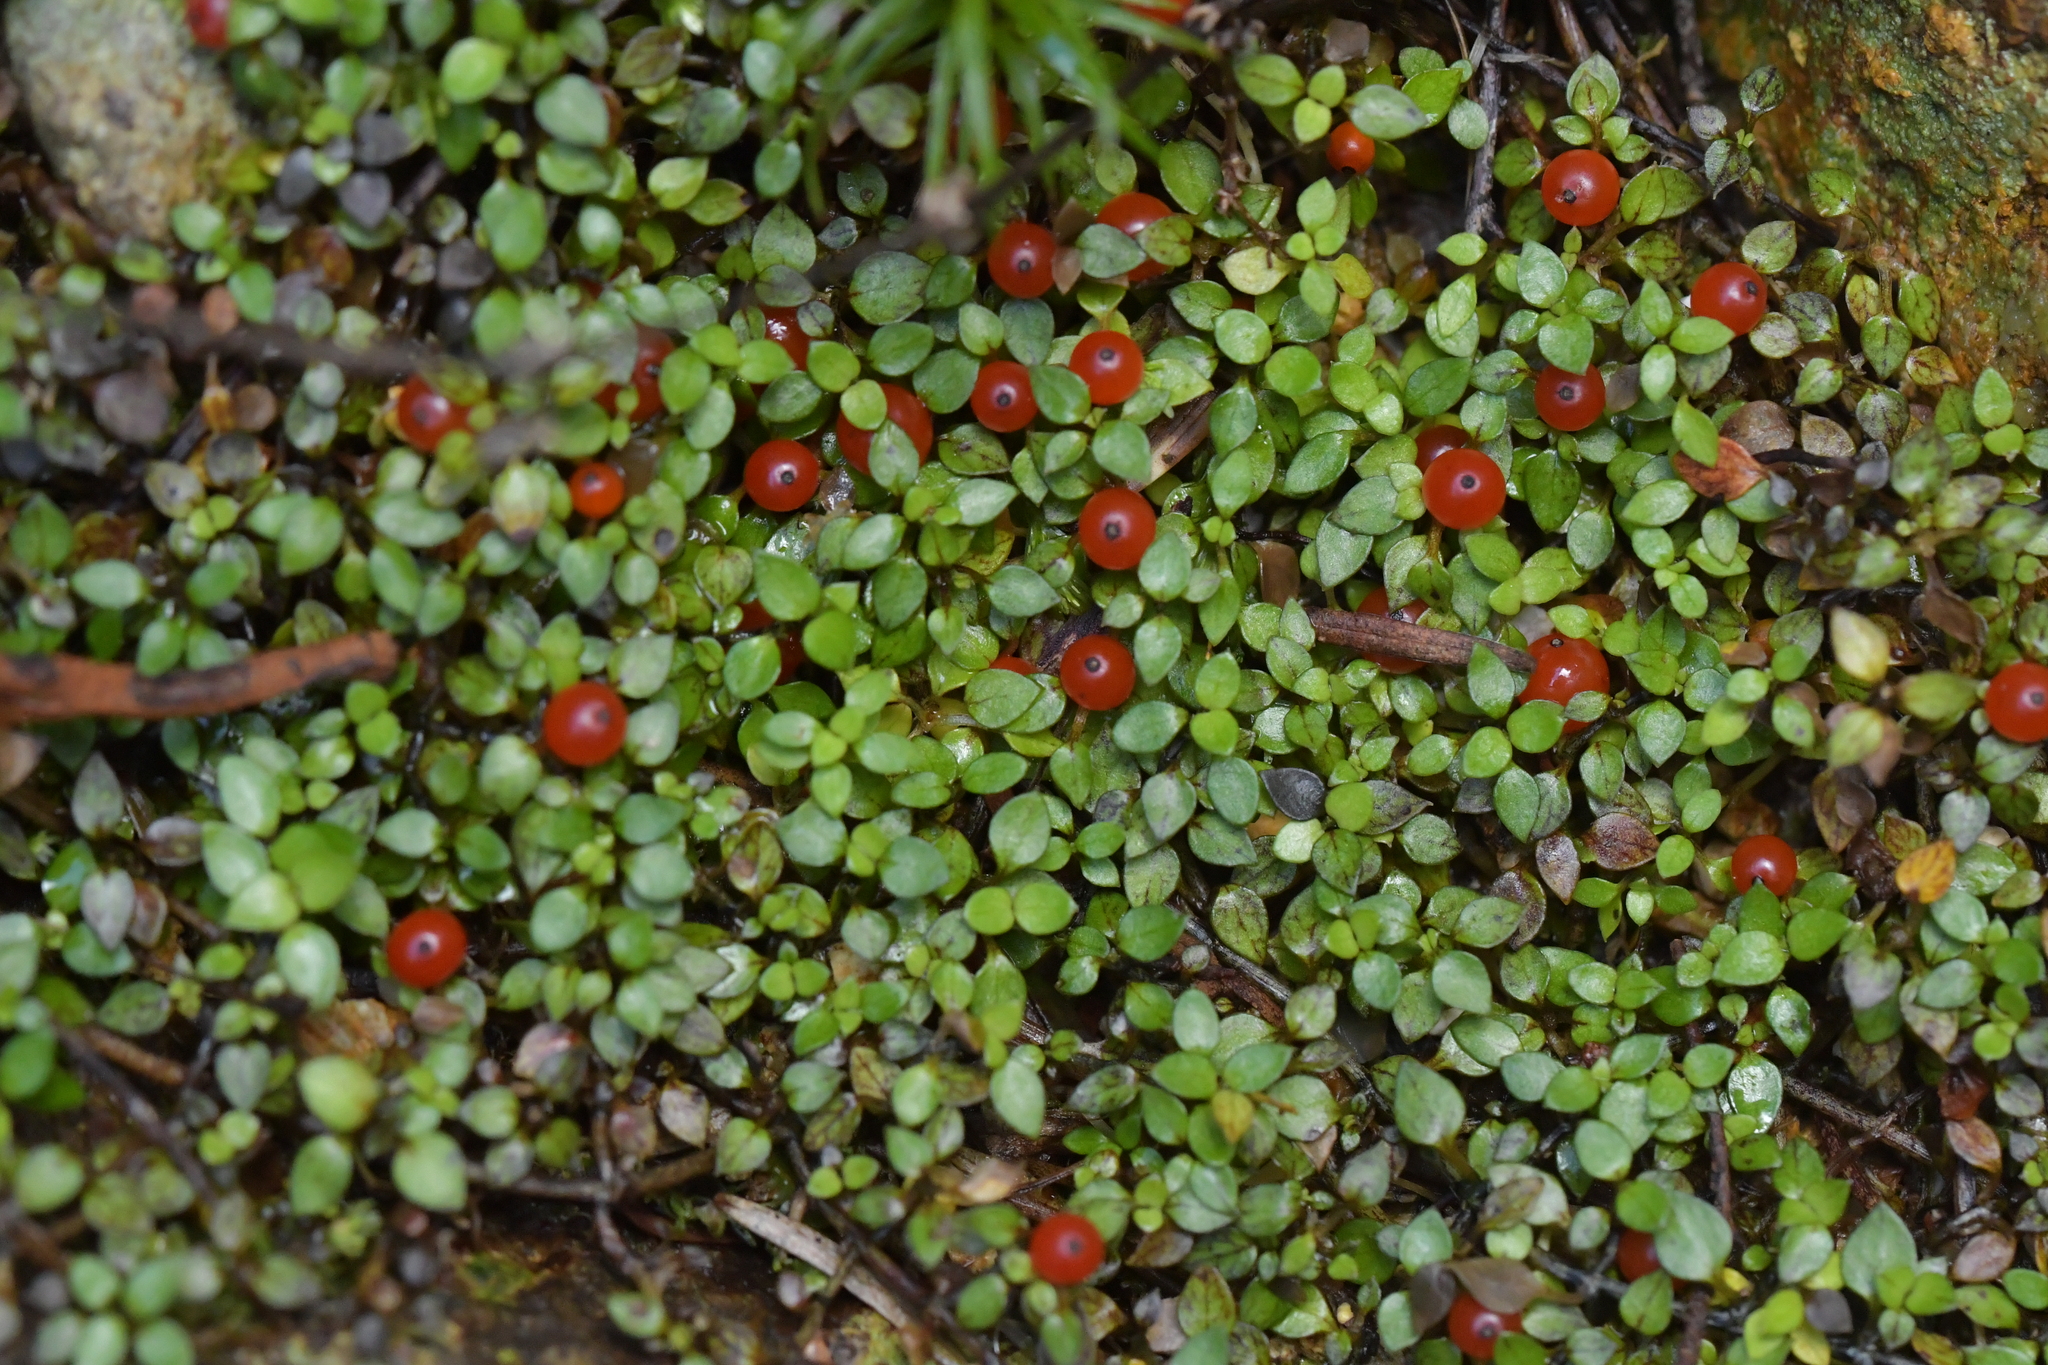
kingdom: Plantae
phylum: Tracheophyta
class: Magnoliopsida
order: Gentianales
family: Rubiaceae
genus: Nertera
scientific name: Nertera granadensis
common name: Beadplant
